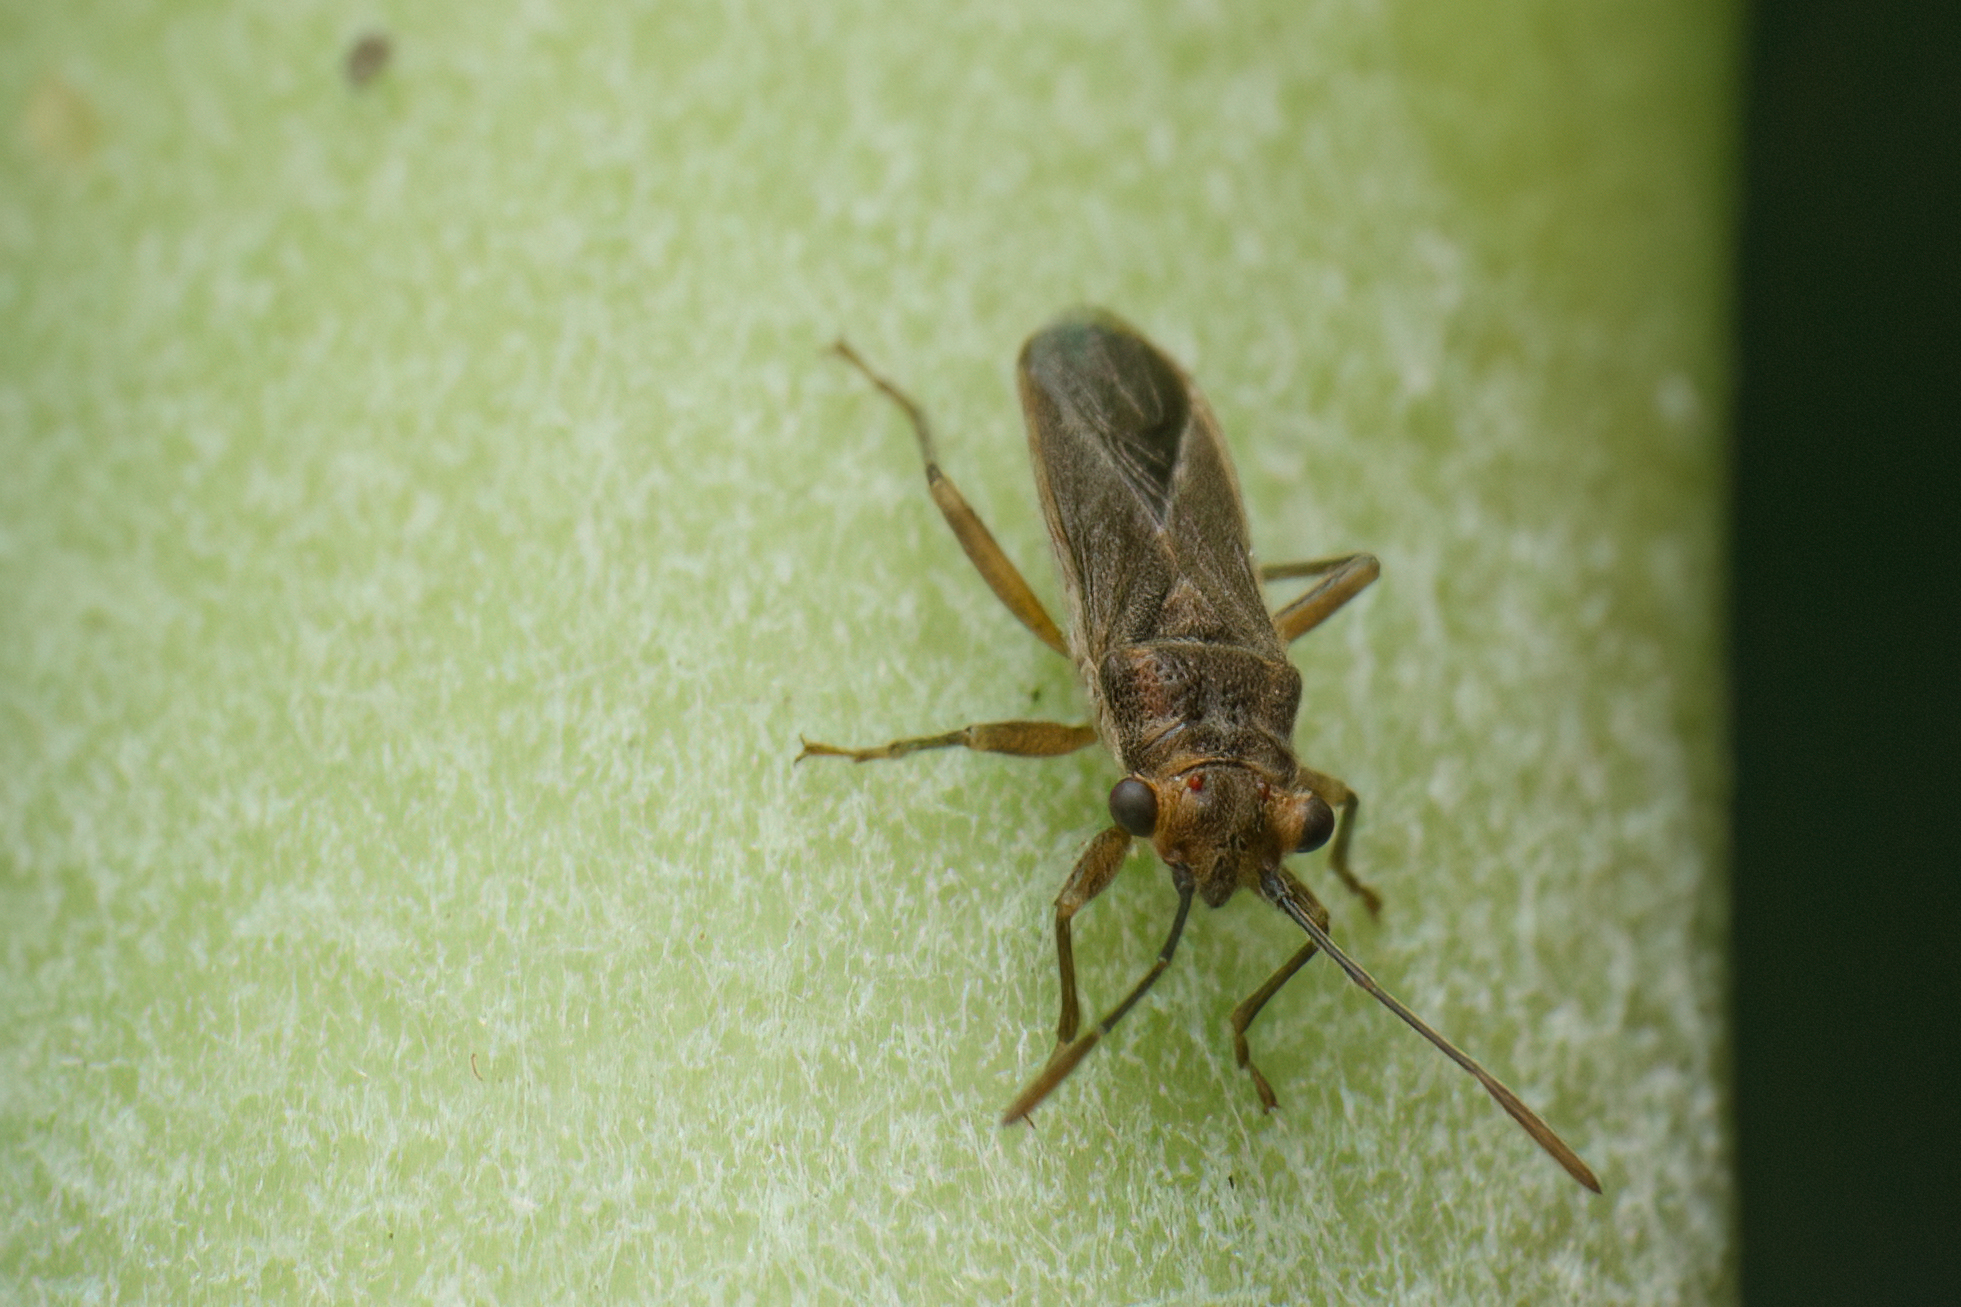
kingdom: Animalia
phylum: Arthropoda
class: Insecta
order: Hemiptera
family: Lygaeidae
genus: Aethalotus
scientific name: Aethalotus horni
